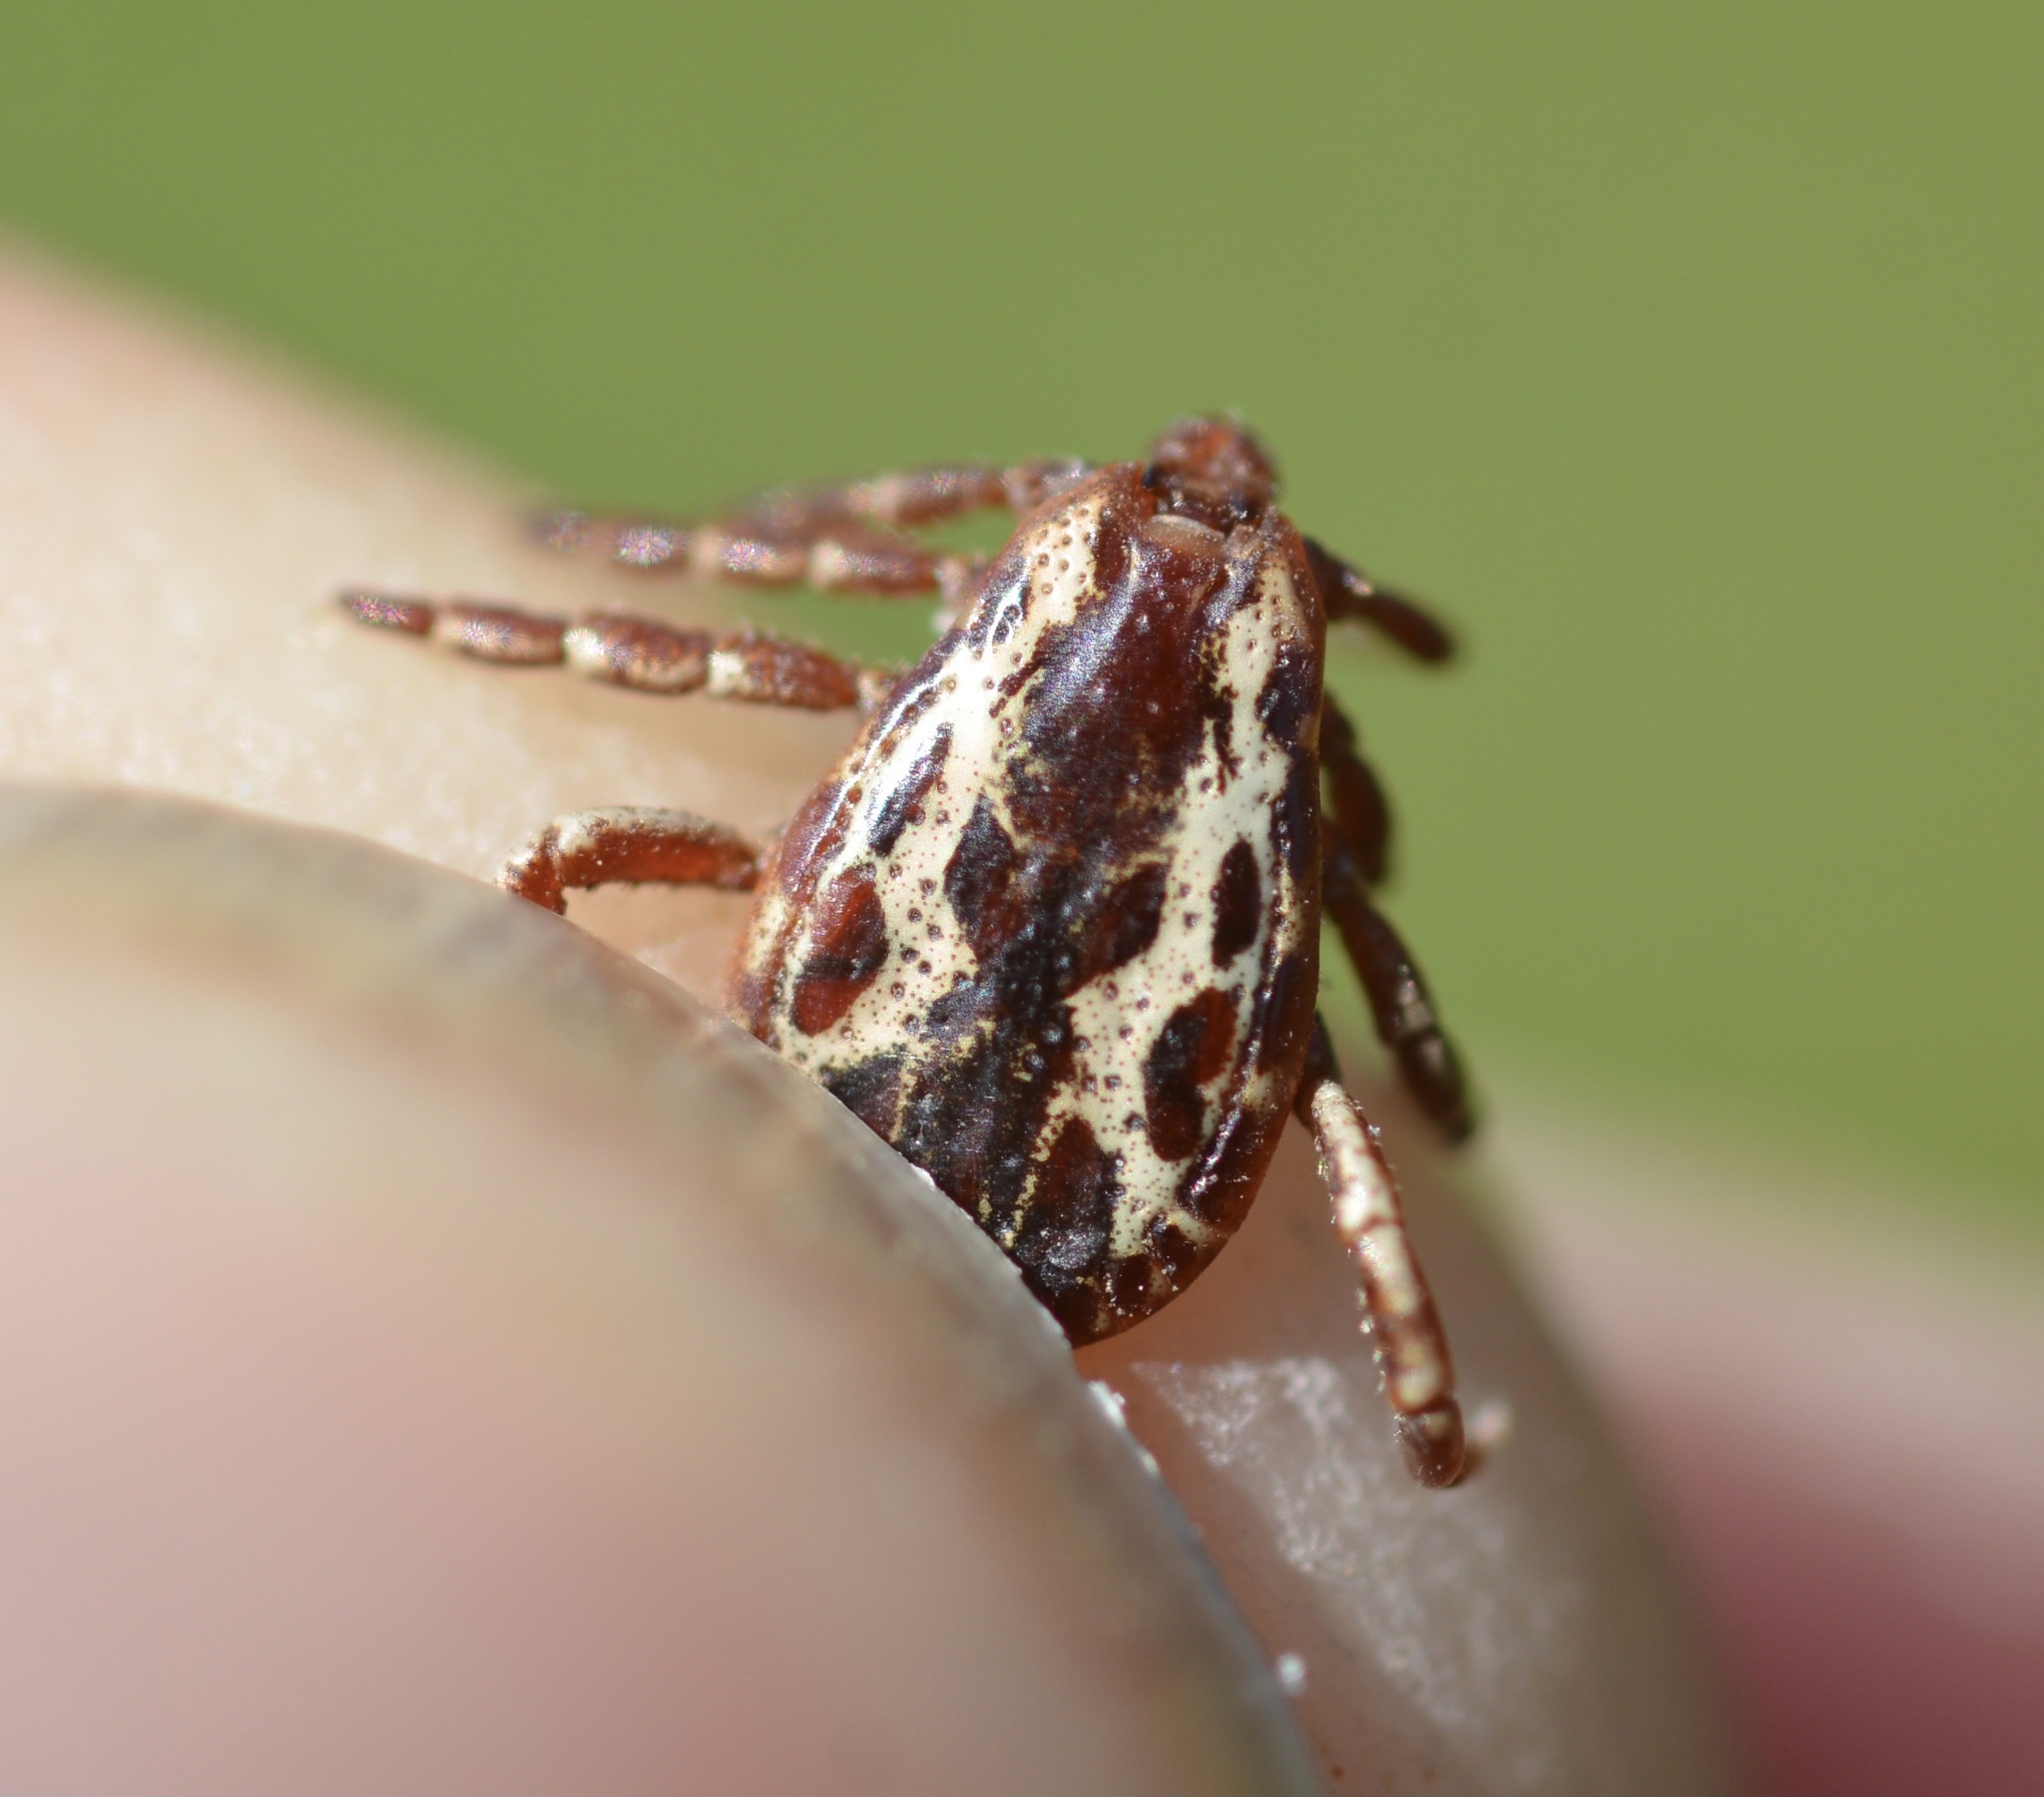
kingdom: Animalia
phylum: Arthropoda
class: Arachnida
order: Ixodida
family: Ixodidae
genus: Dermacentor
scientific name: Dermacentor variabilis
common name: American dog tick
